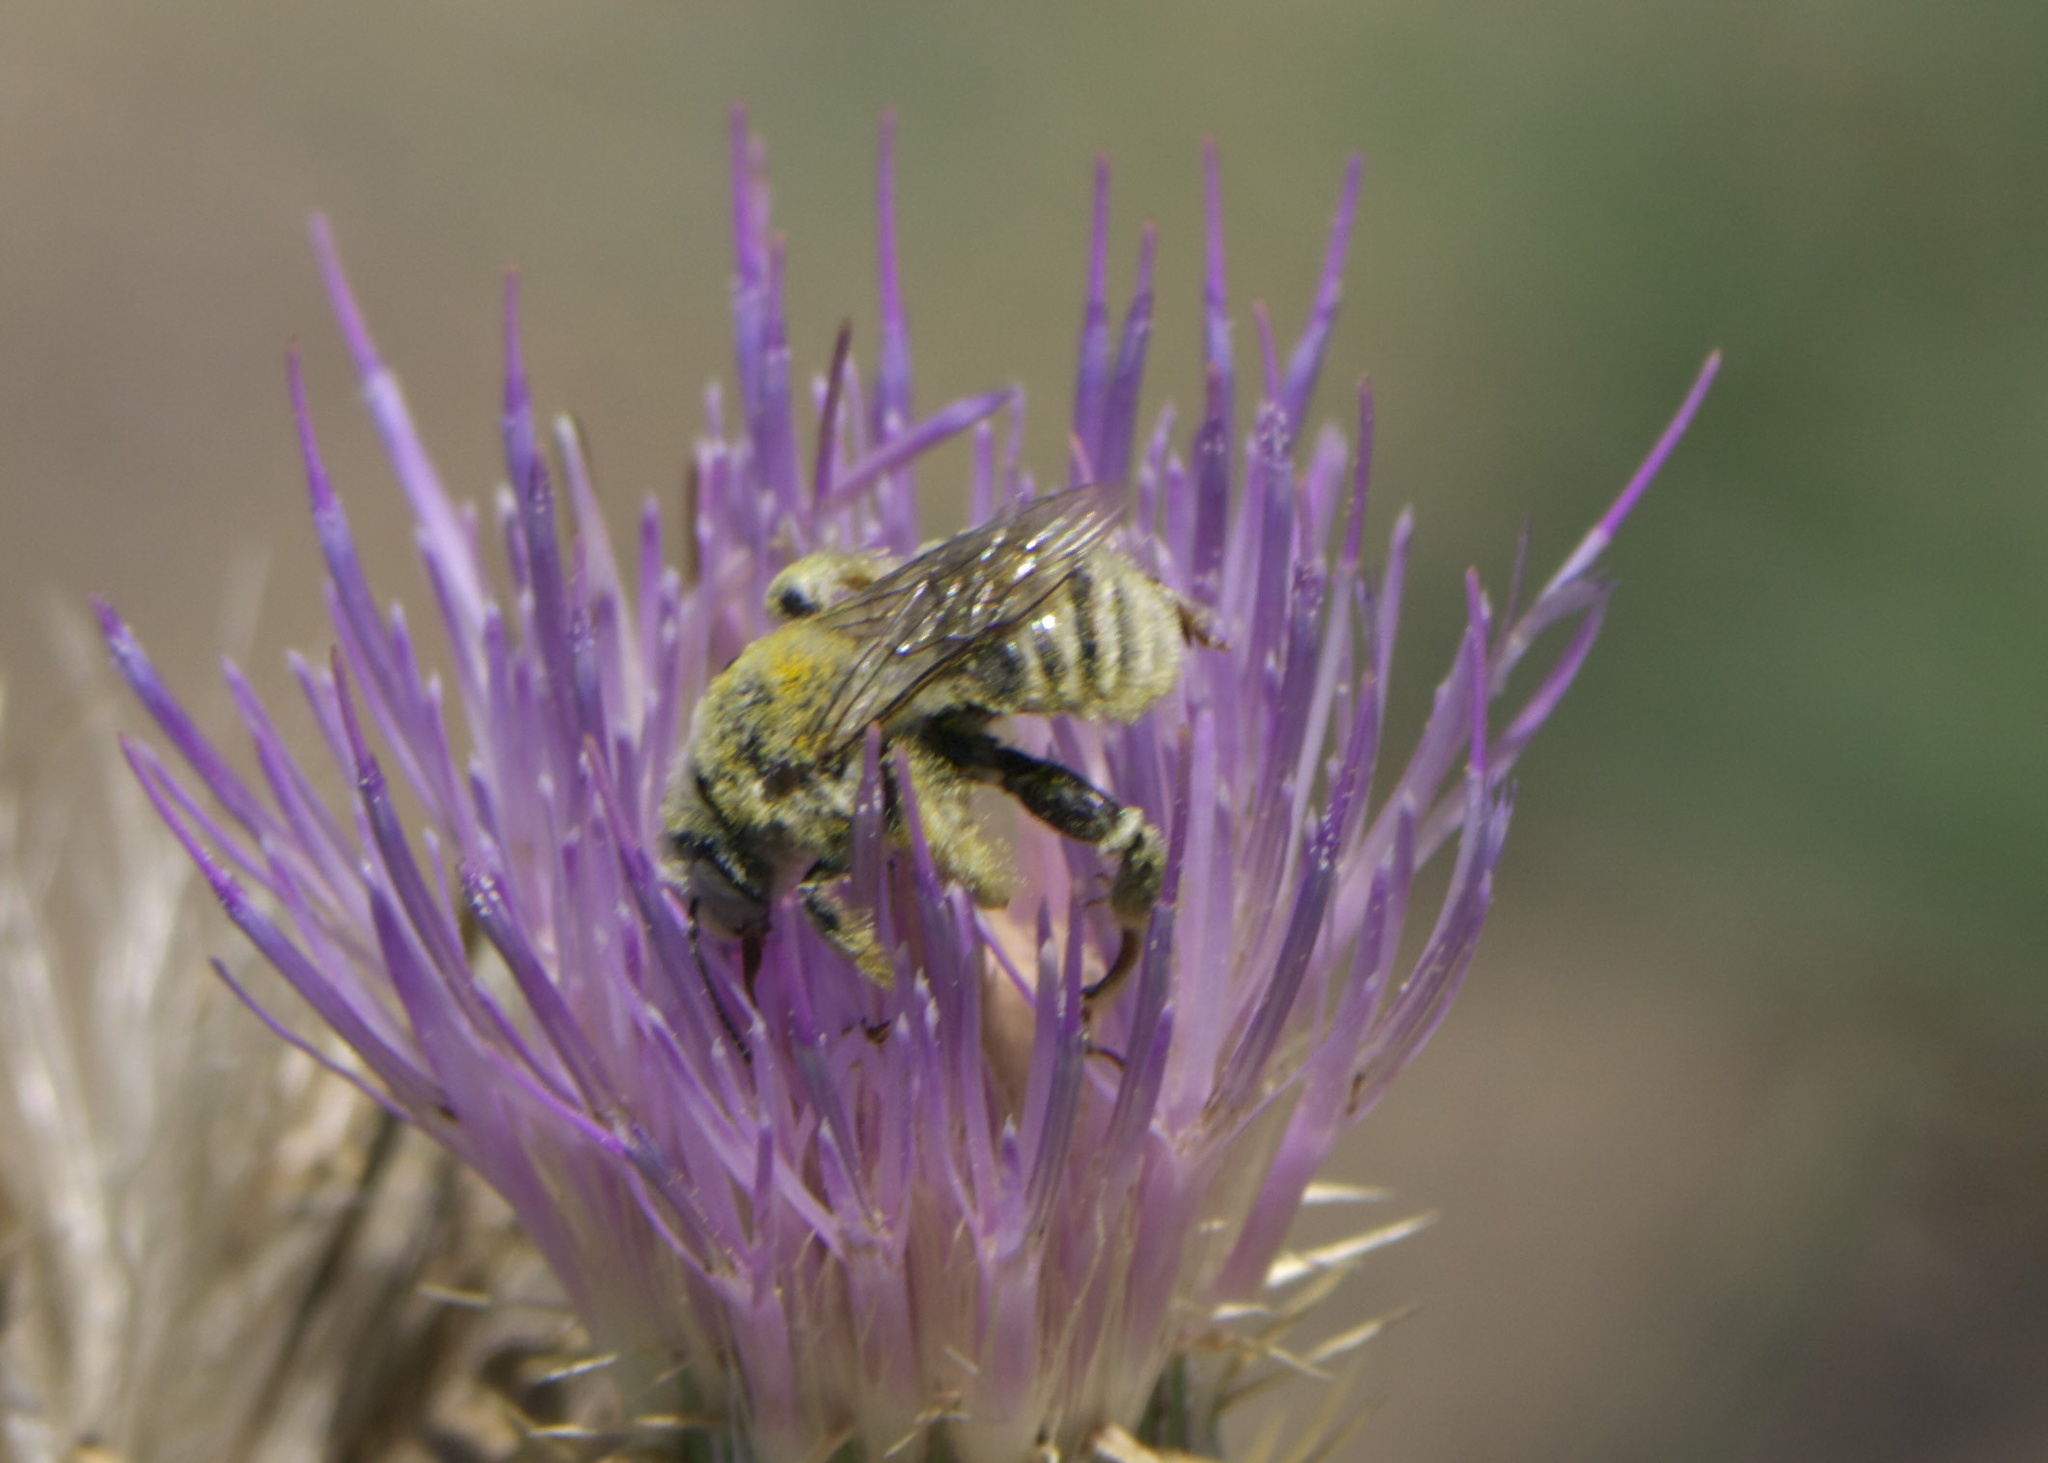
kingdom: Animalia
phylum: Arthropoda
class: Insecta
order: Hymenoptera
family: Apidae
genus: Diadasia
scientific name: Diadasia
